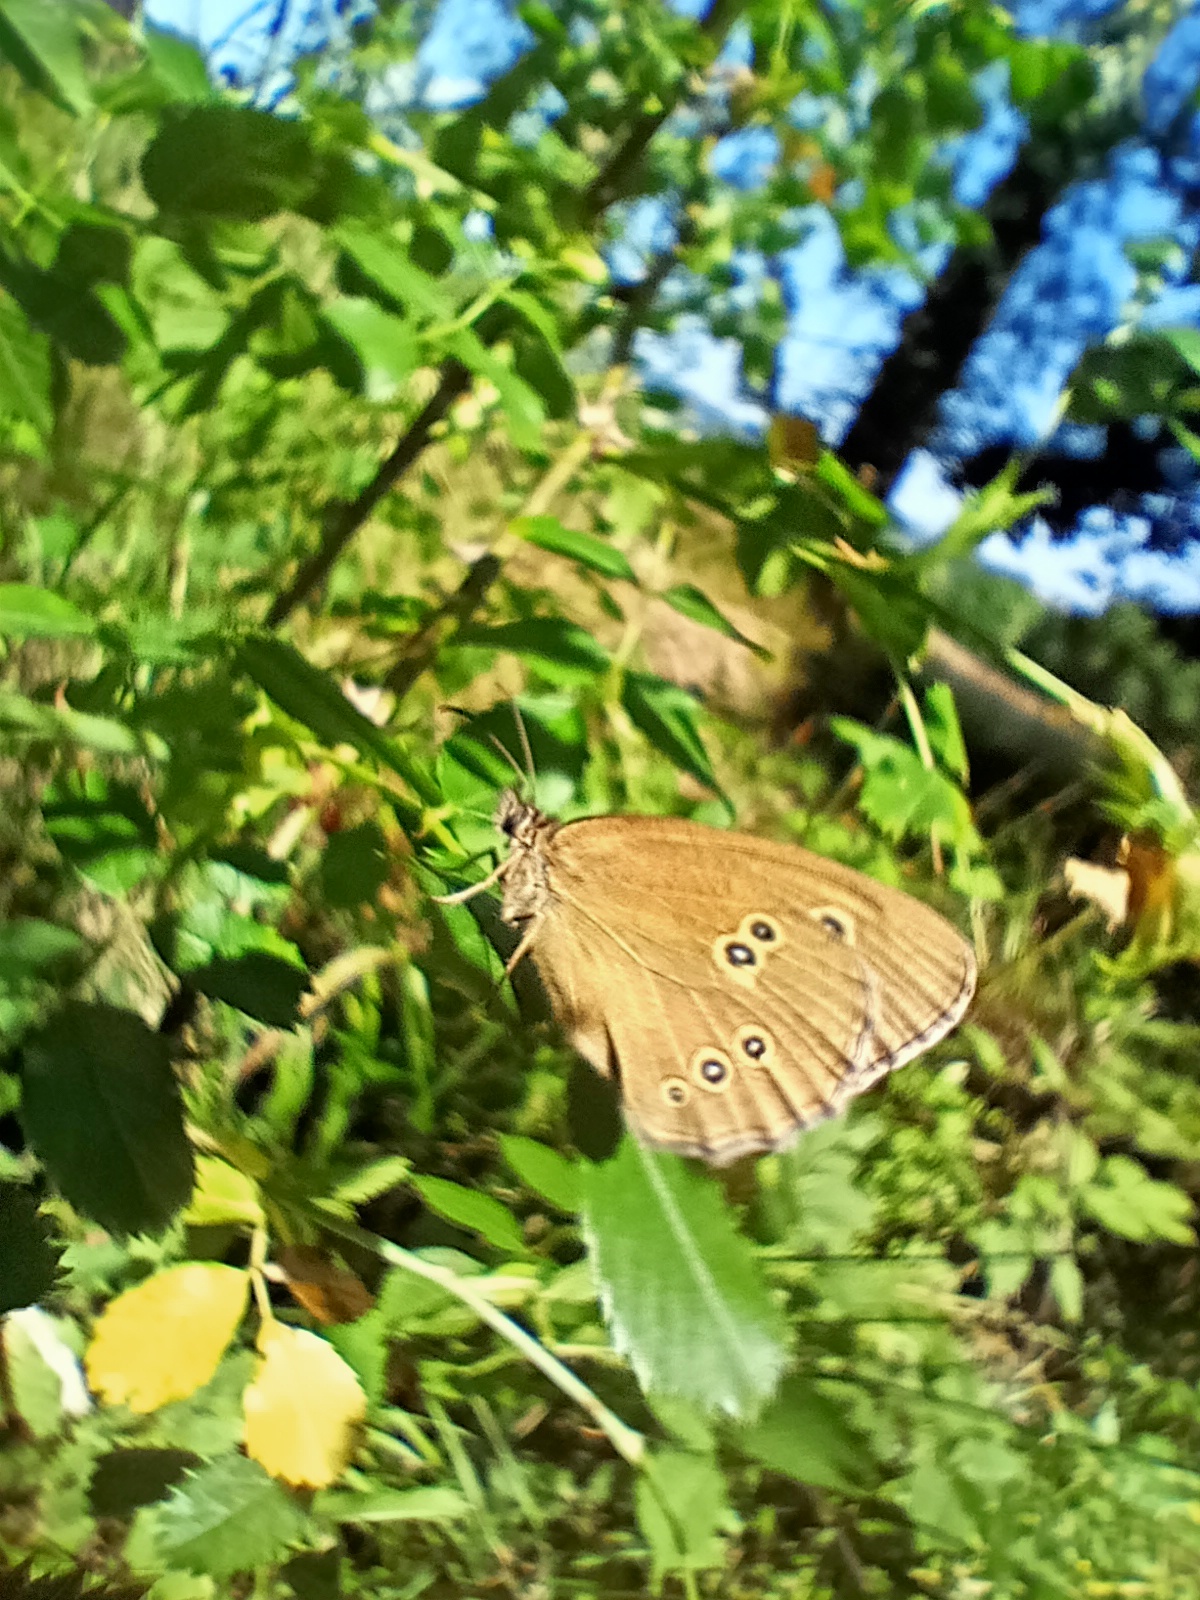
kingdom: Animalia
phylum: Arthropoda
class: Insecta
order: Lepidoptera
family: Nymphalidae
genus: Aphantopus
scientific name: Aphantopus hyperantus
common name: Ringlet
